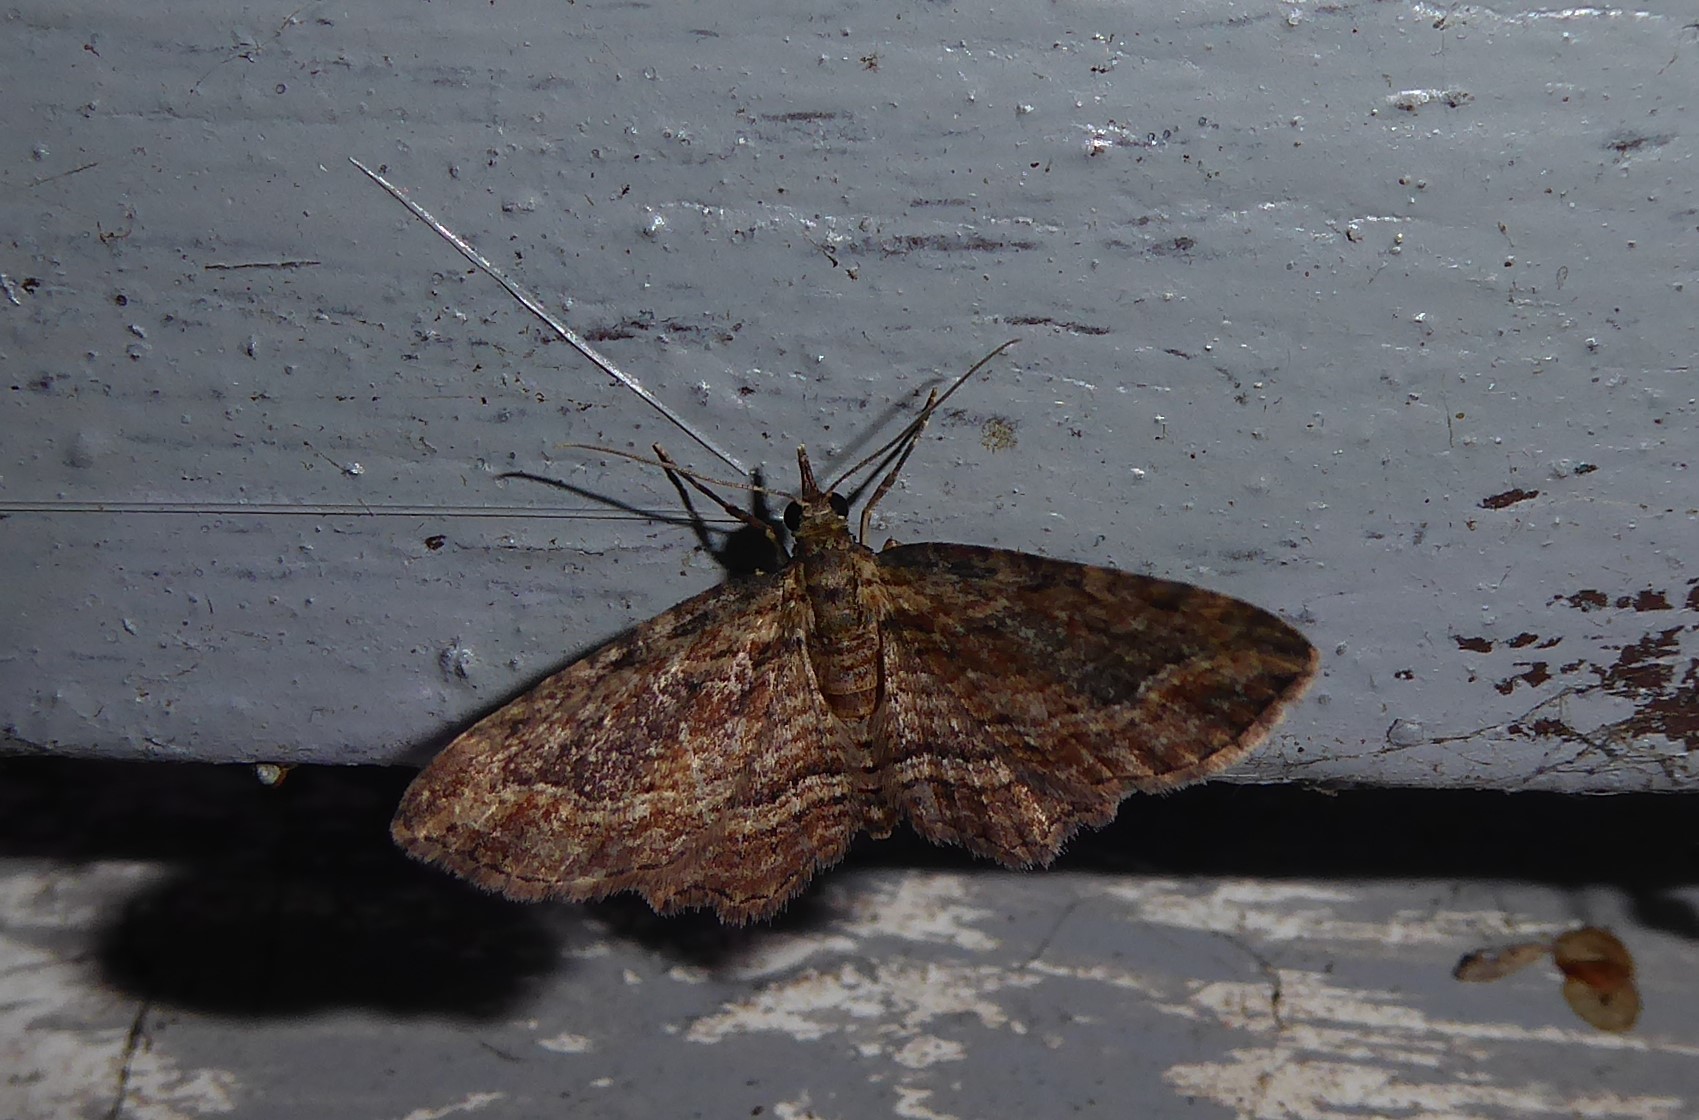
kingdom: Animalia
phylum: Arthropoda
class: Insecta
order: Lepidoptera
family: Geometridae
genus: Chloroclystis
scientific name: Chloroclystis filata
